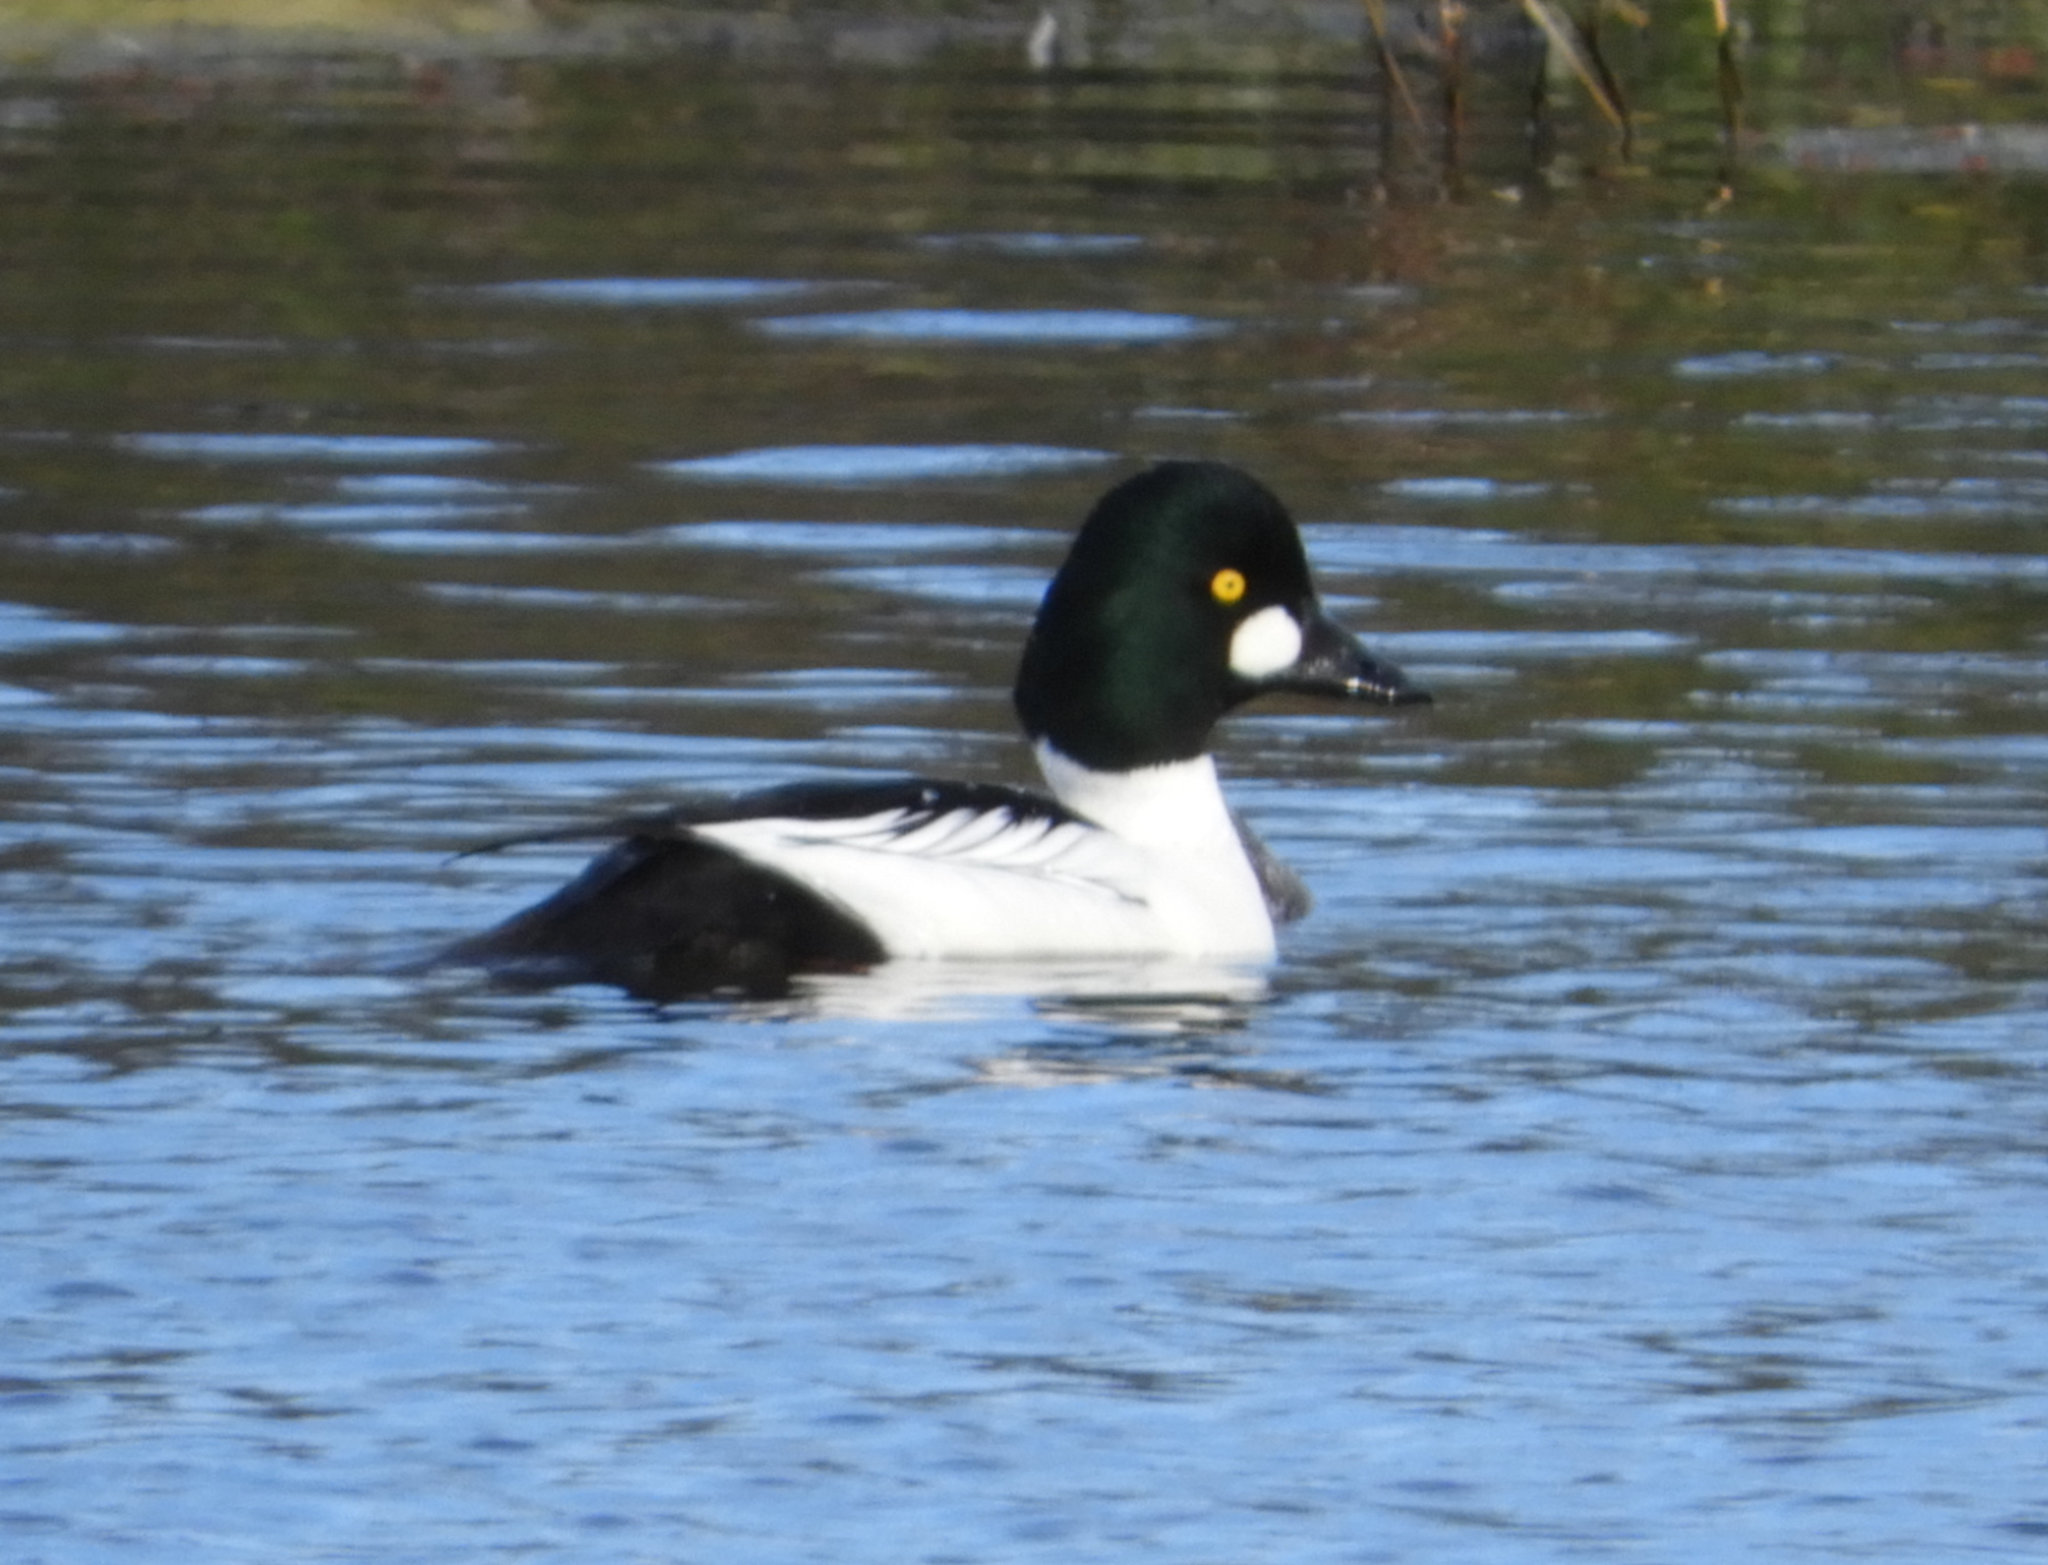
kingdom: Animalia
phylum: Chordata
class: Aves
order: Anseriformes
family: Anatidae
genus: Bucephala
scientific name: Bucephala clangula
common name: Common goldeneye
